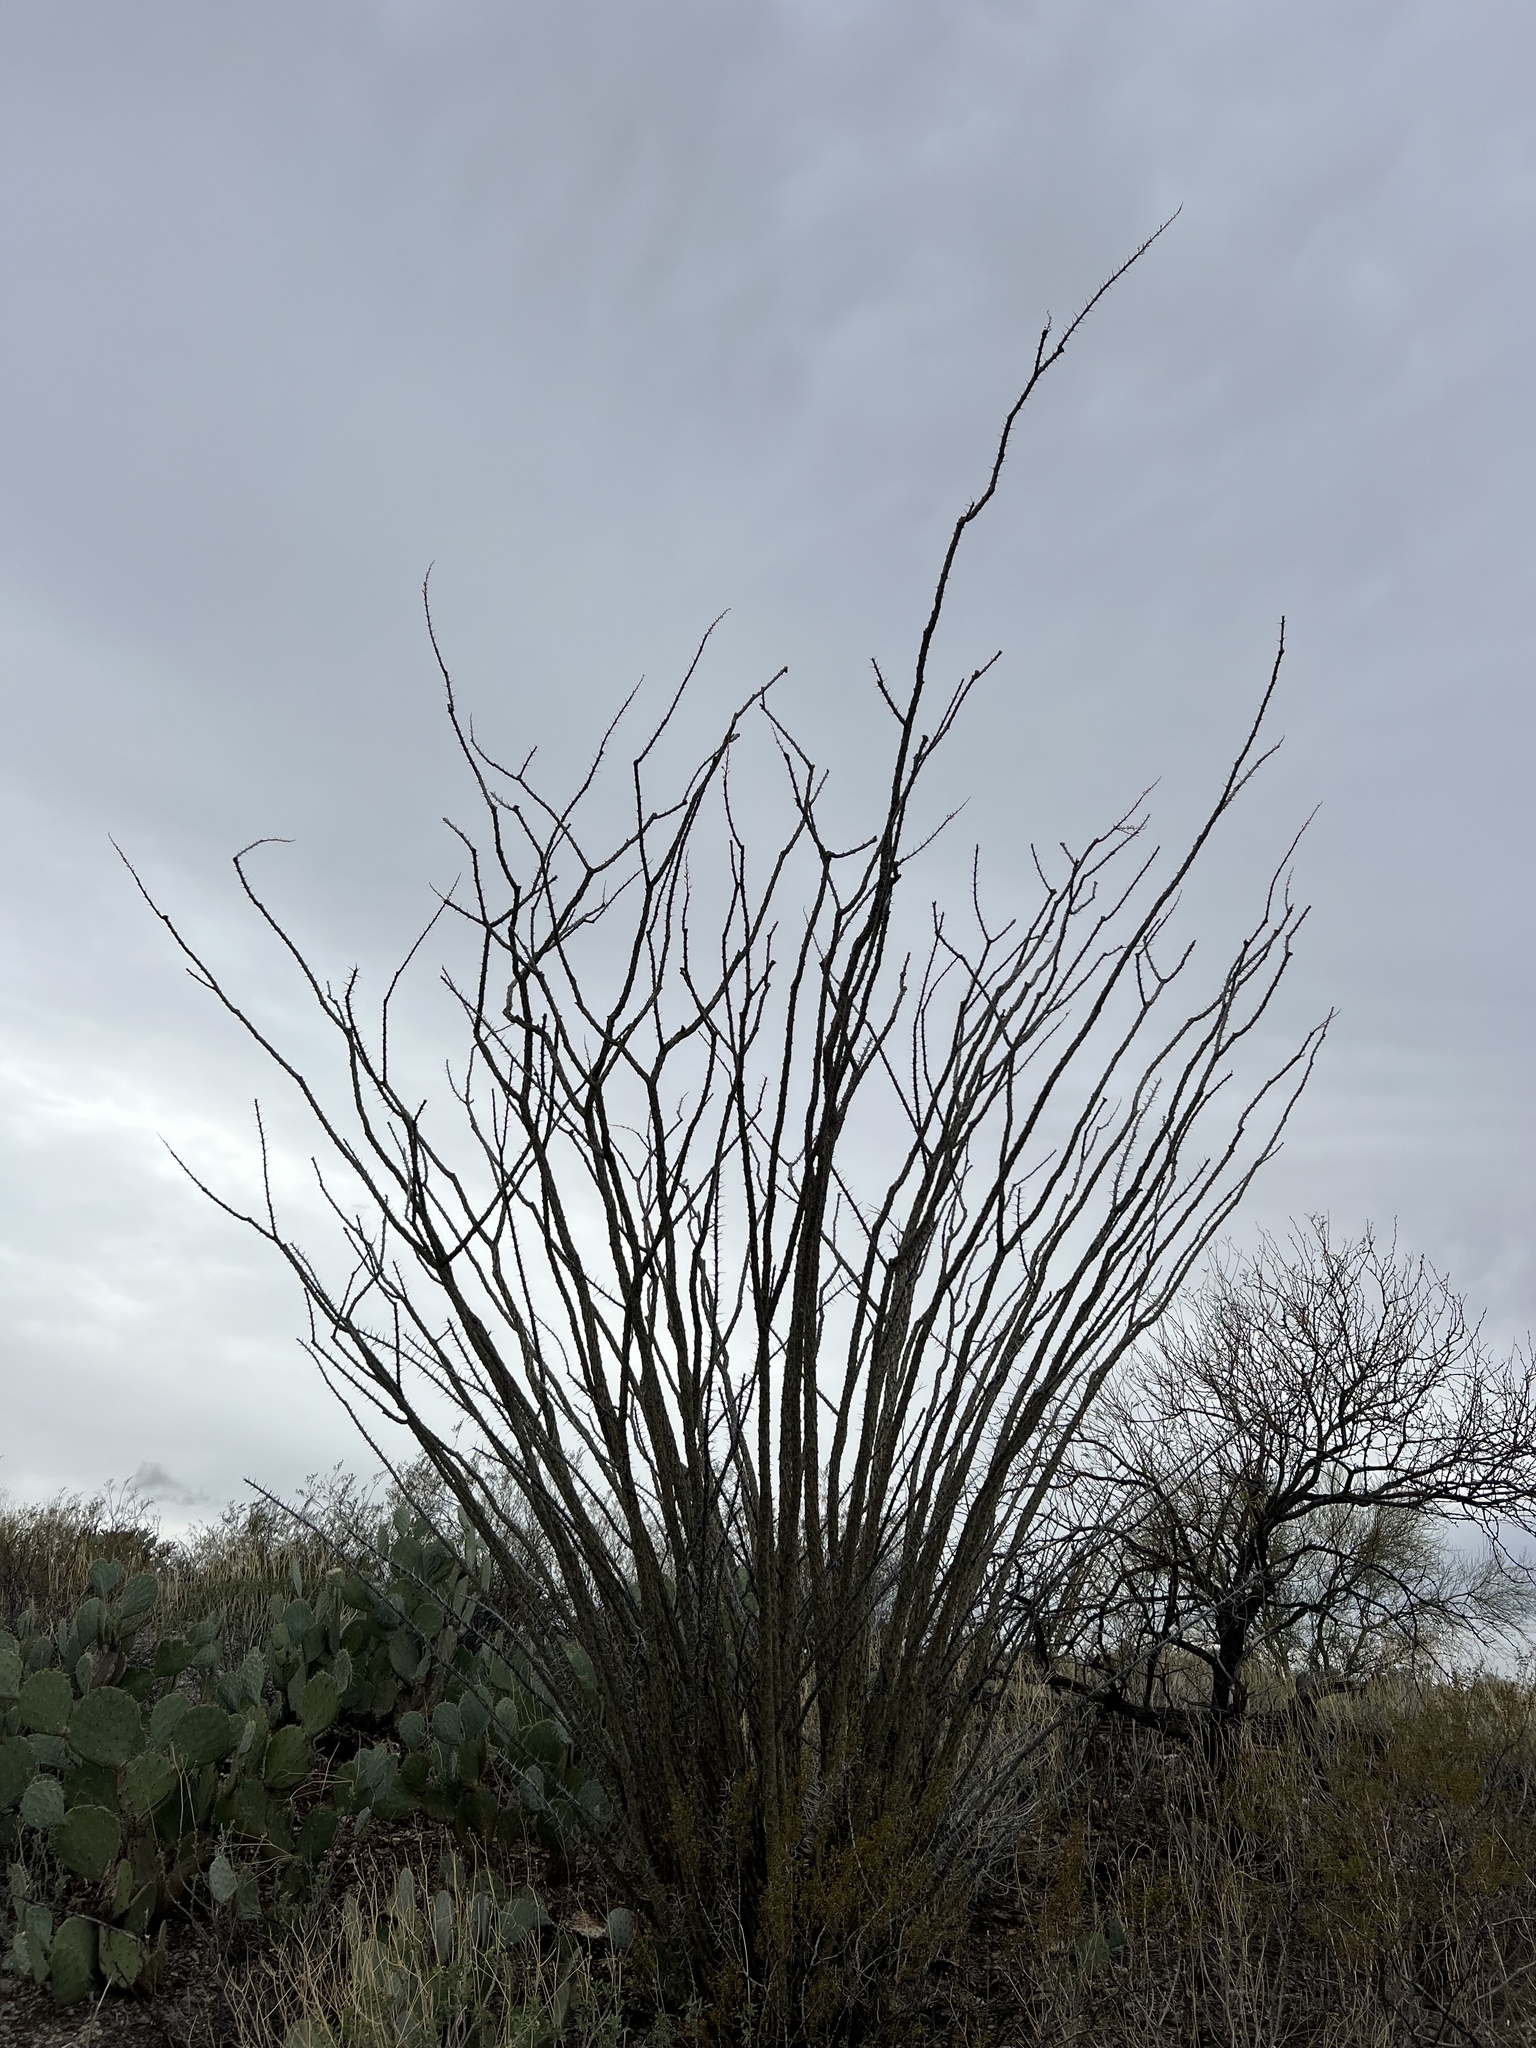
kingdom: Plantae
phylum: Tracheophyta
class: Magnoliopsida
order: Ericales
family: Fouquieriaceae
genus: Fouquieria
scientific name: Fouquieria splendens
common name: Vine-cactus
